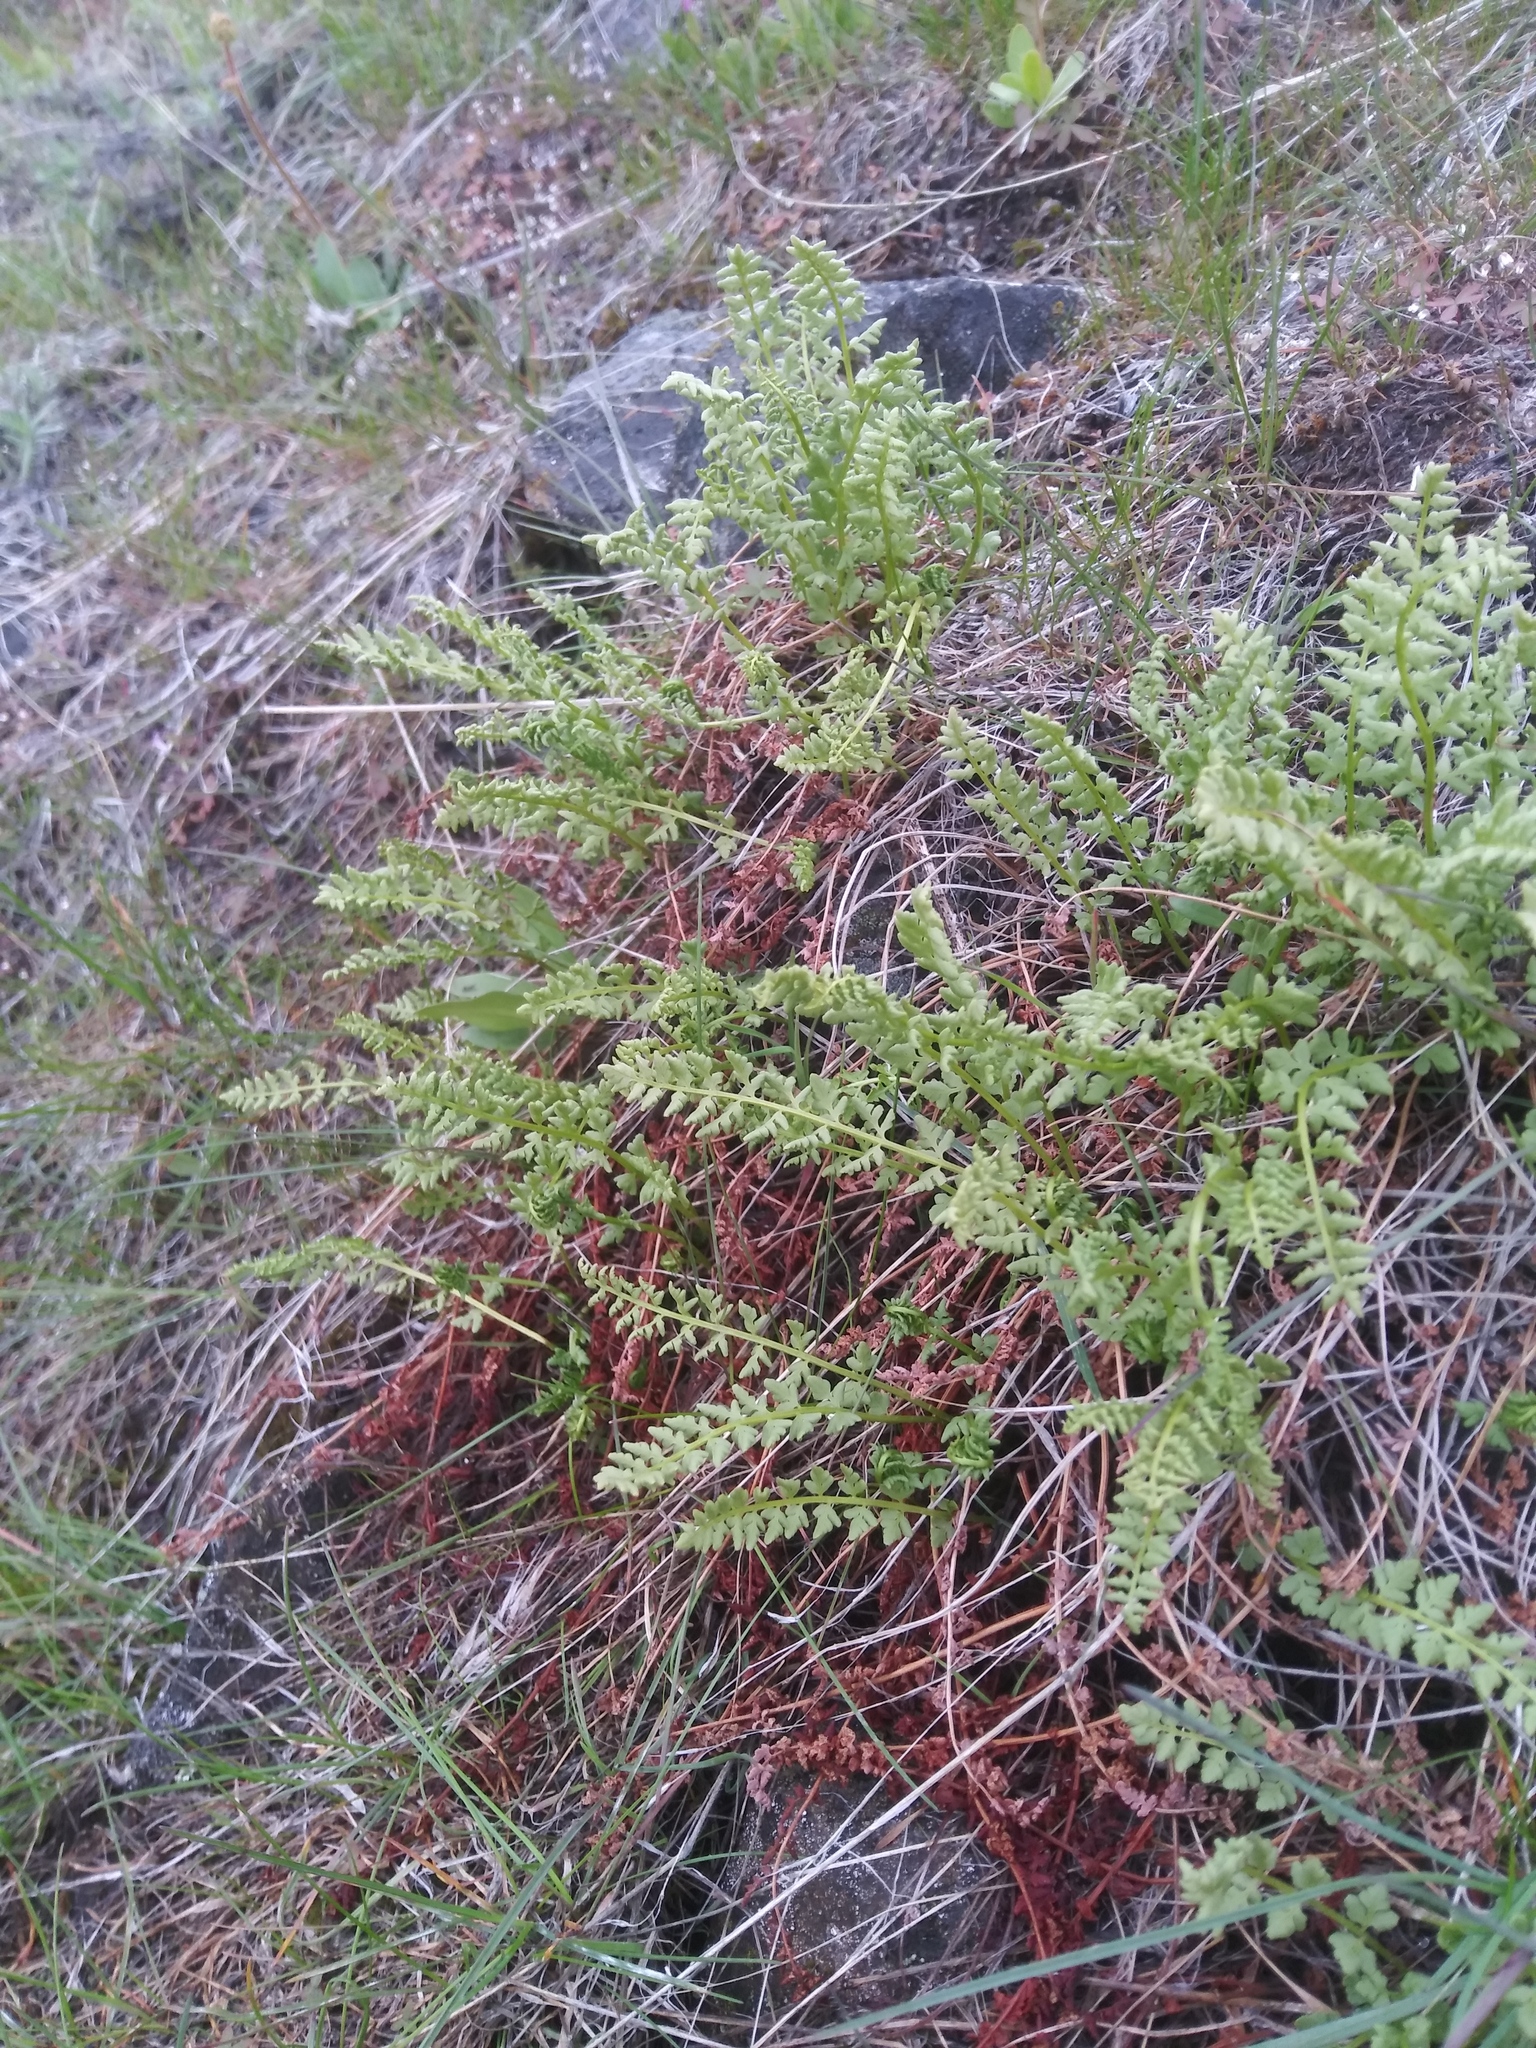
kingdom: Plantae
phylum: Tracheophyta
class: Polypodiopsida
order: Polypodiales
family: Woodsiaceae
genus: Physematium
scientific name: Physematium oreganum
